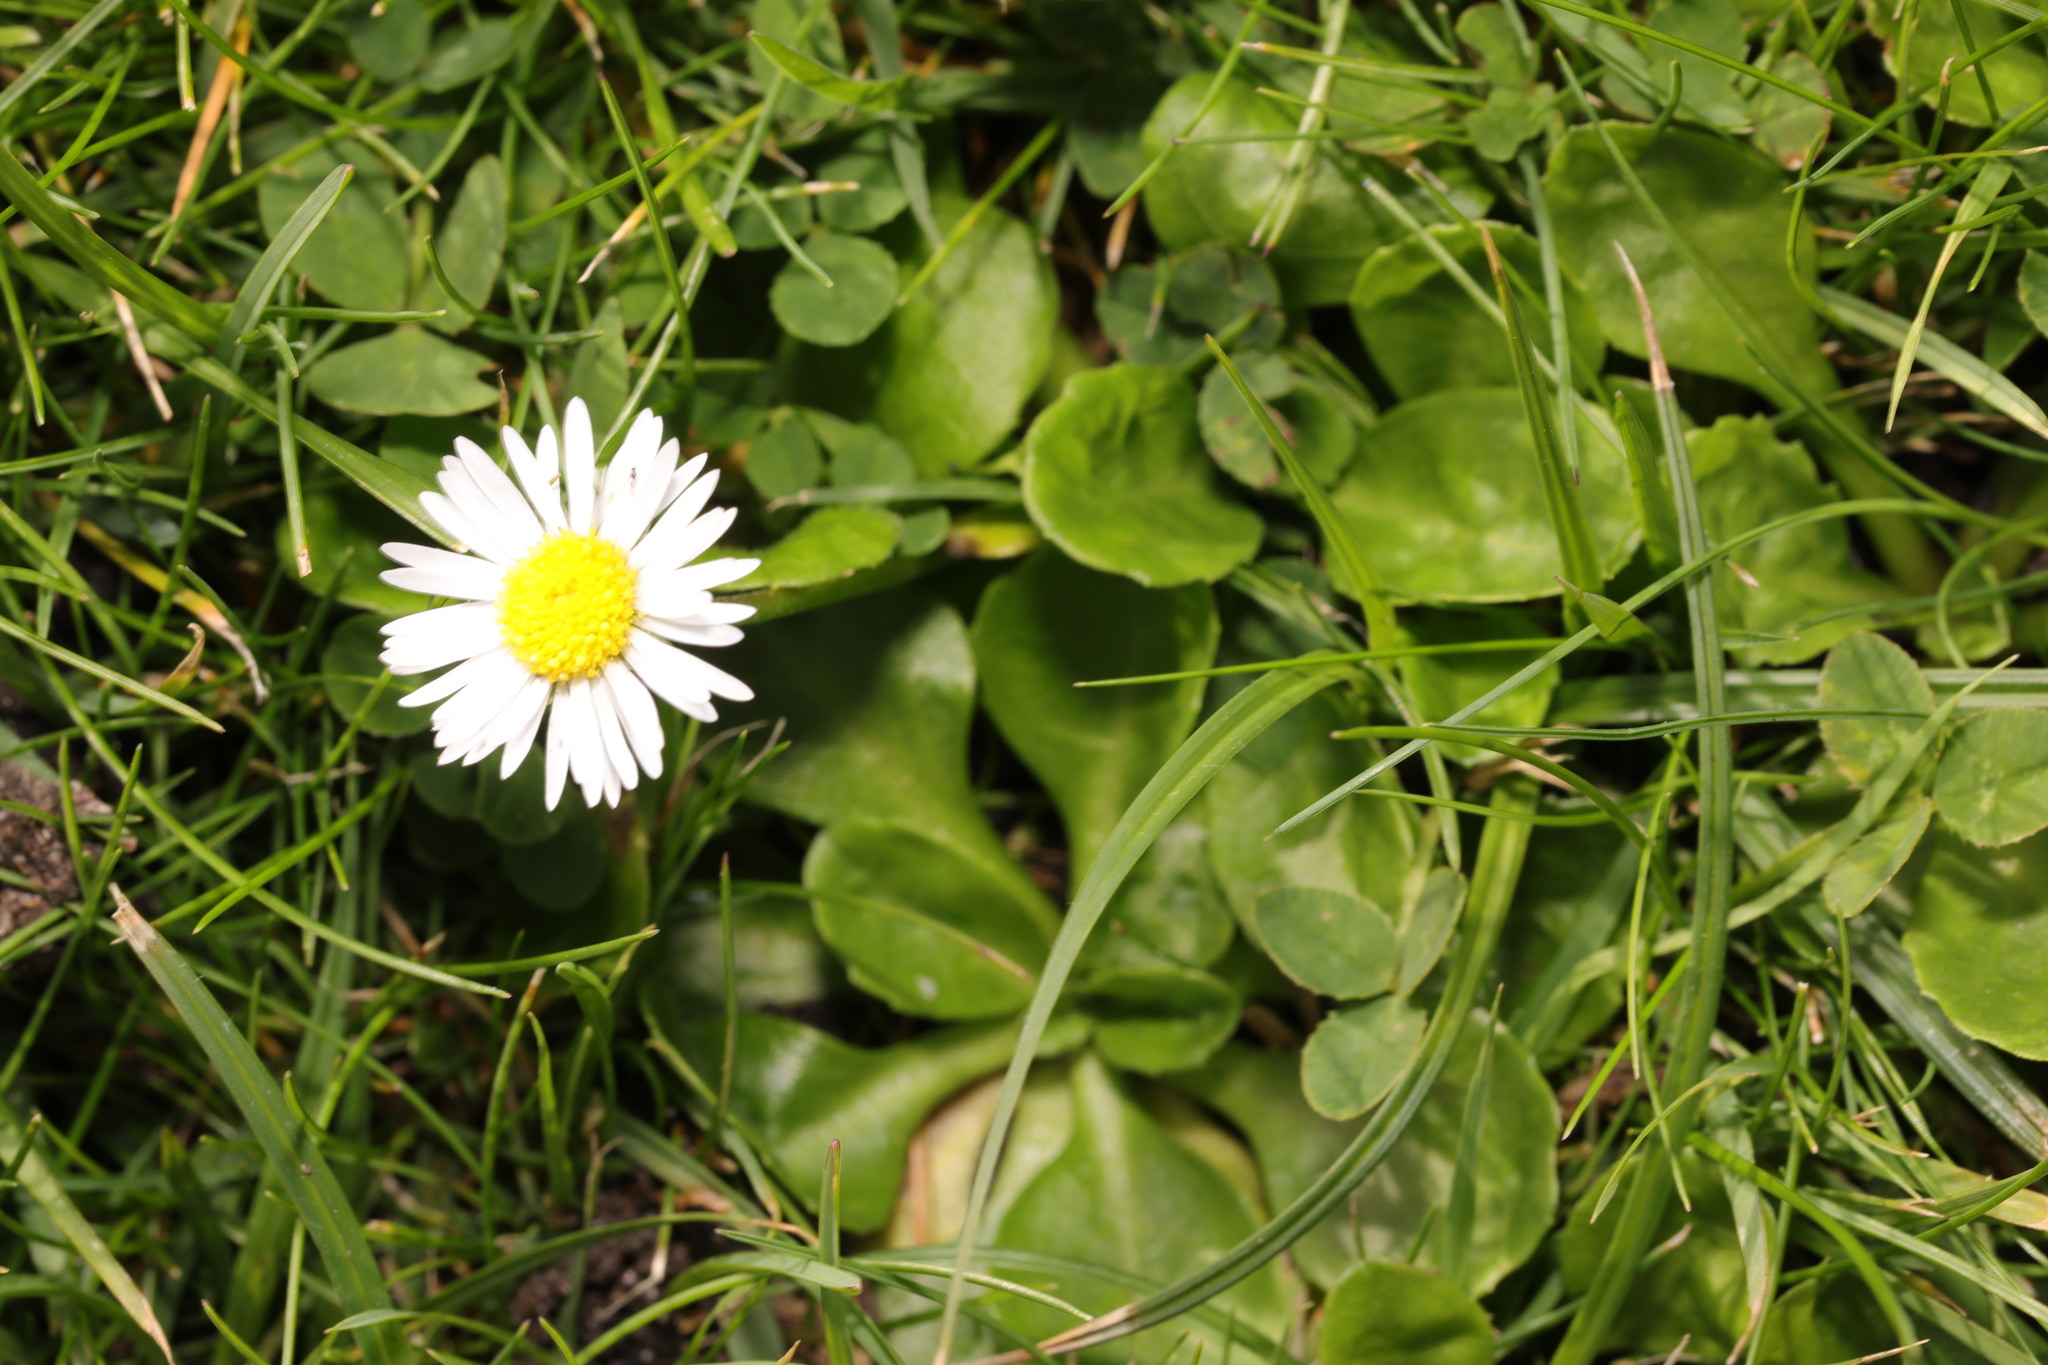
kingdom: Plantae
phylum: Tracheophyta
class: Magnoliopsida
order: Asterales
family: Asteraceae
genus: Bellis
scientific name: Bellis perennis
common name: Lawndaisy
